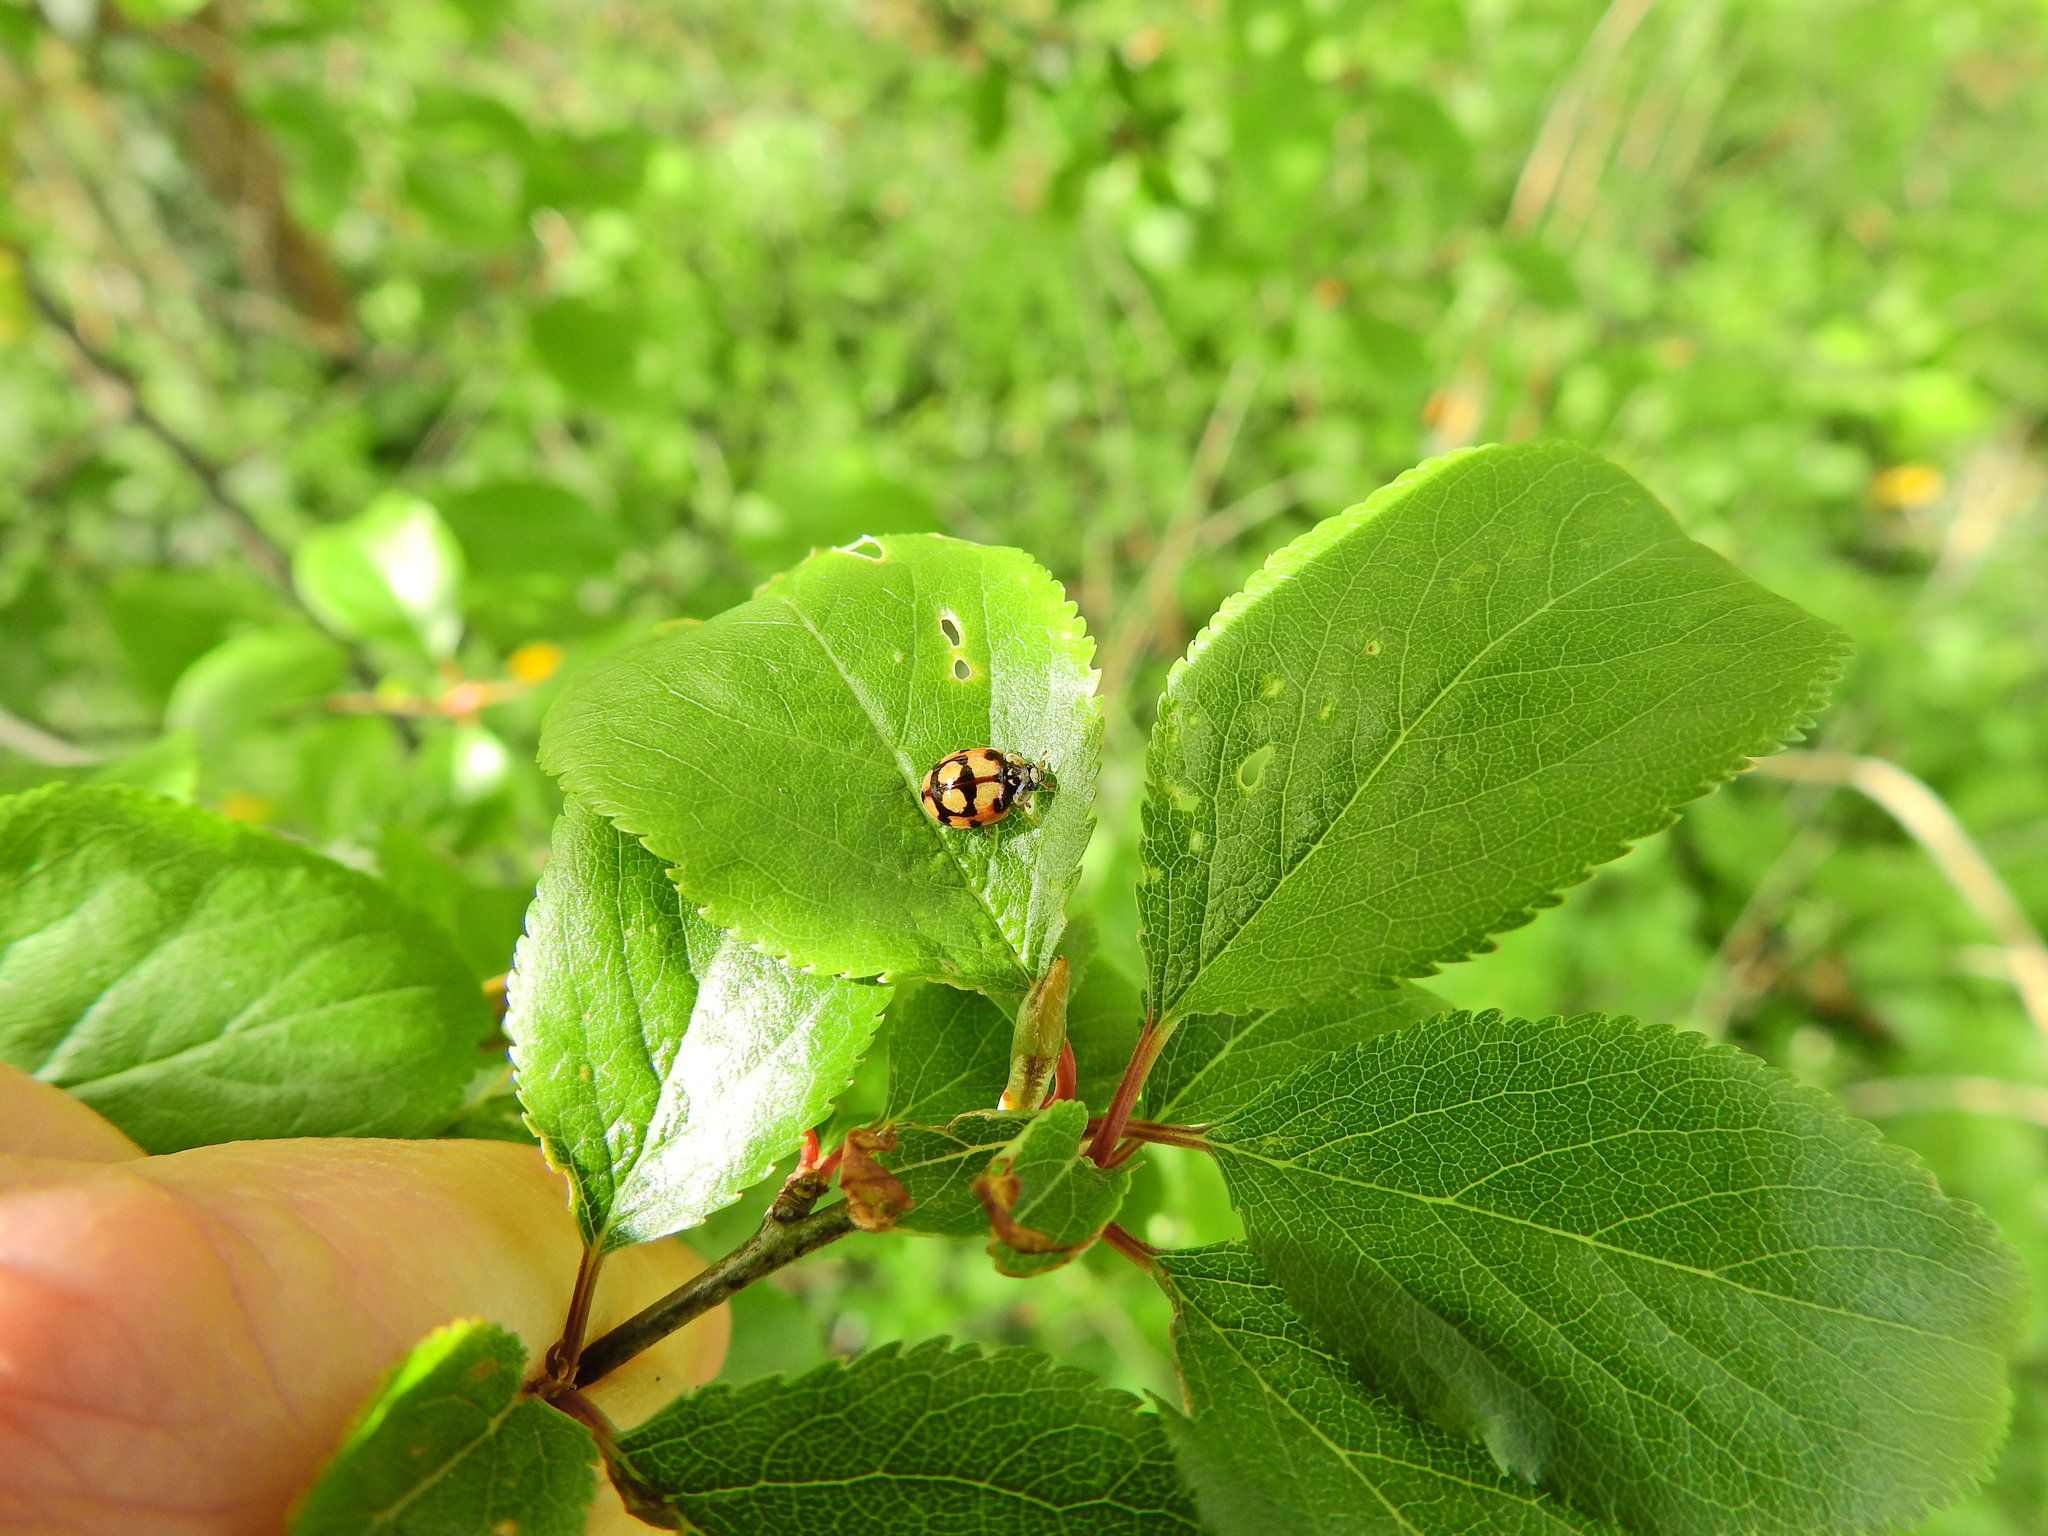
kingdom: Animalia
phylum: Arthropoda
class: Insecta
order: Coleoptera
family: Coccinellidae
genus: Adalia
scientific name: Adalia decempunctata
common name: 10-spot ladybird
